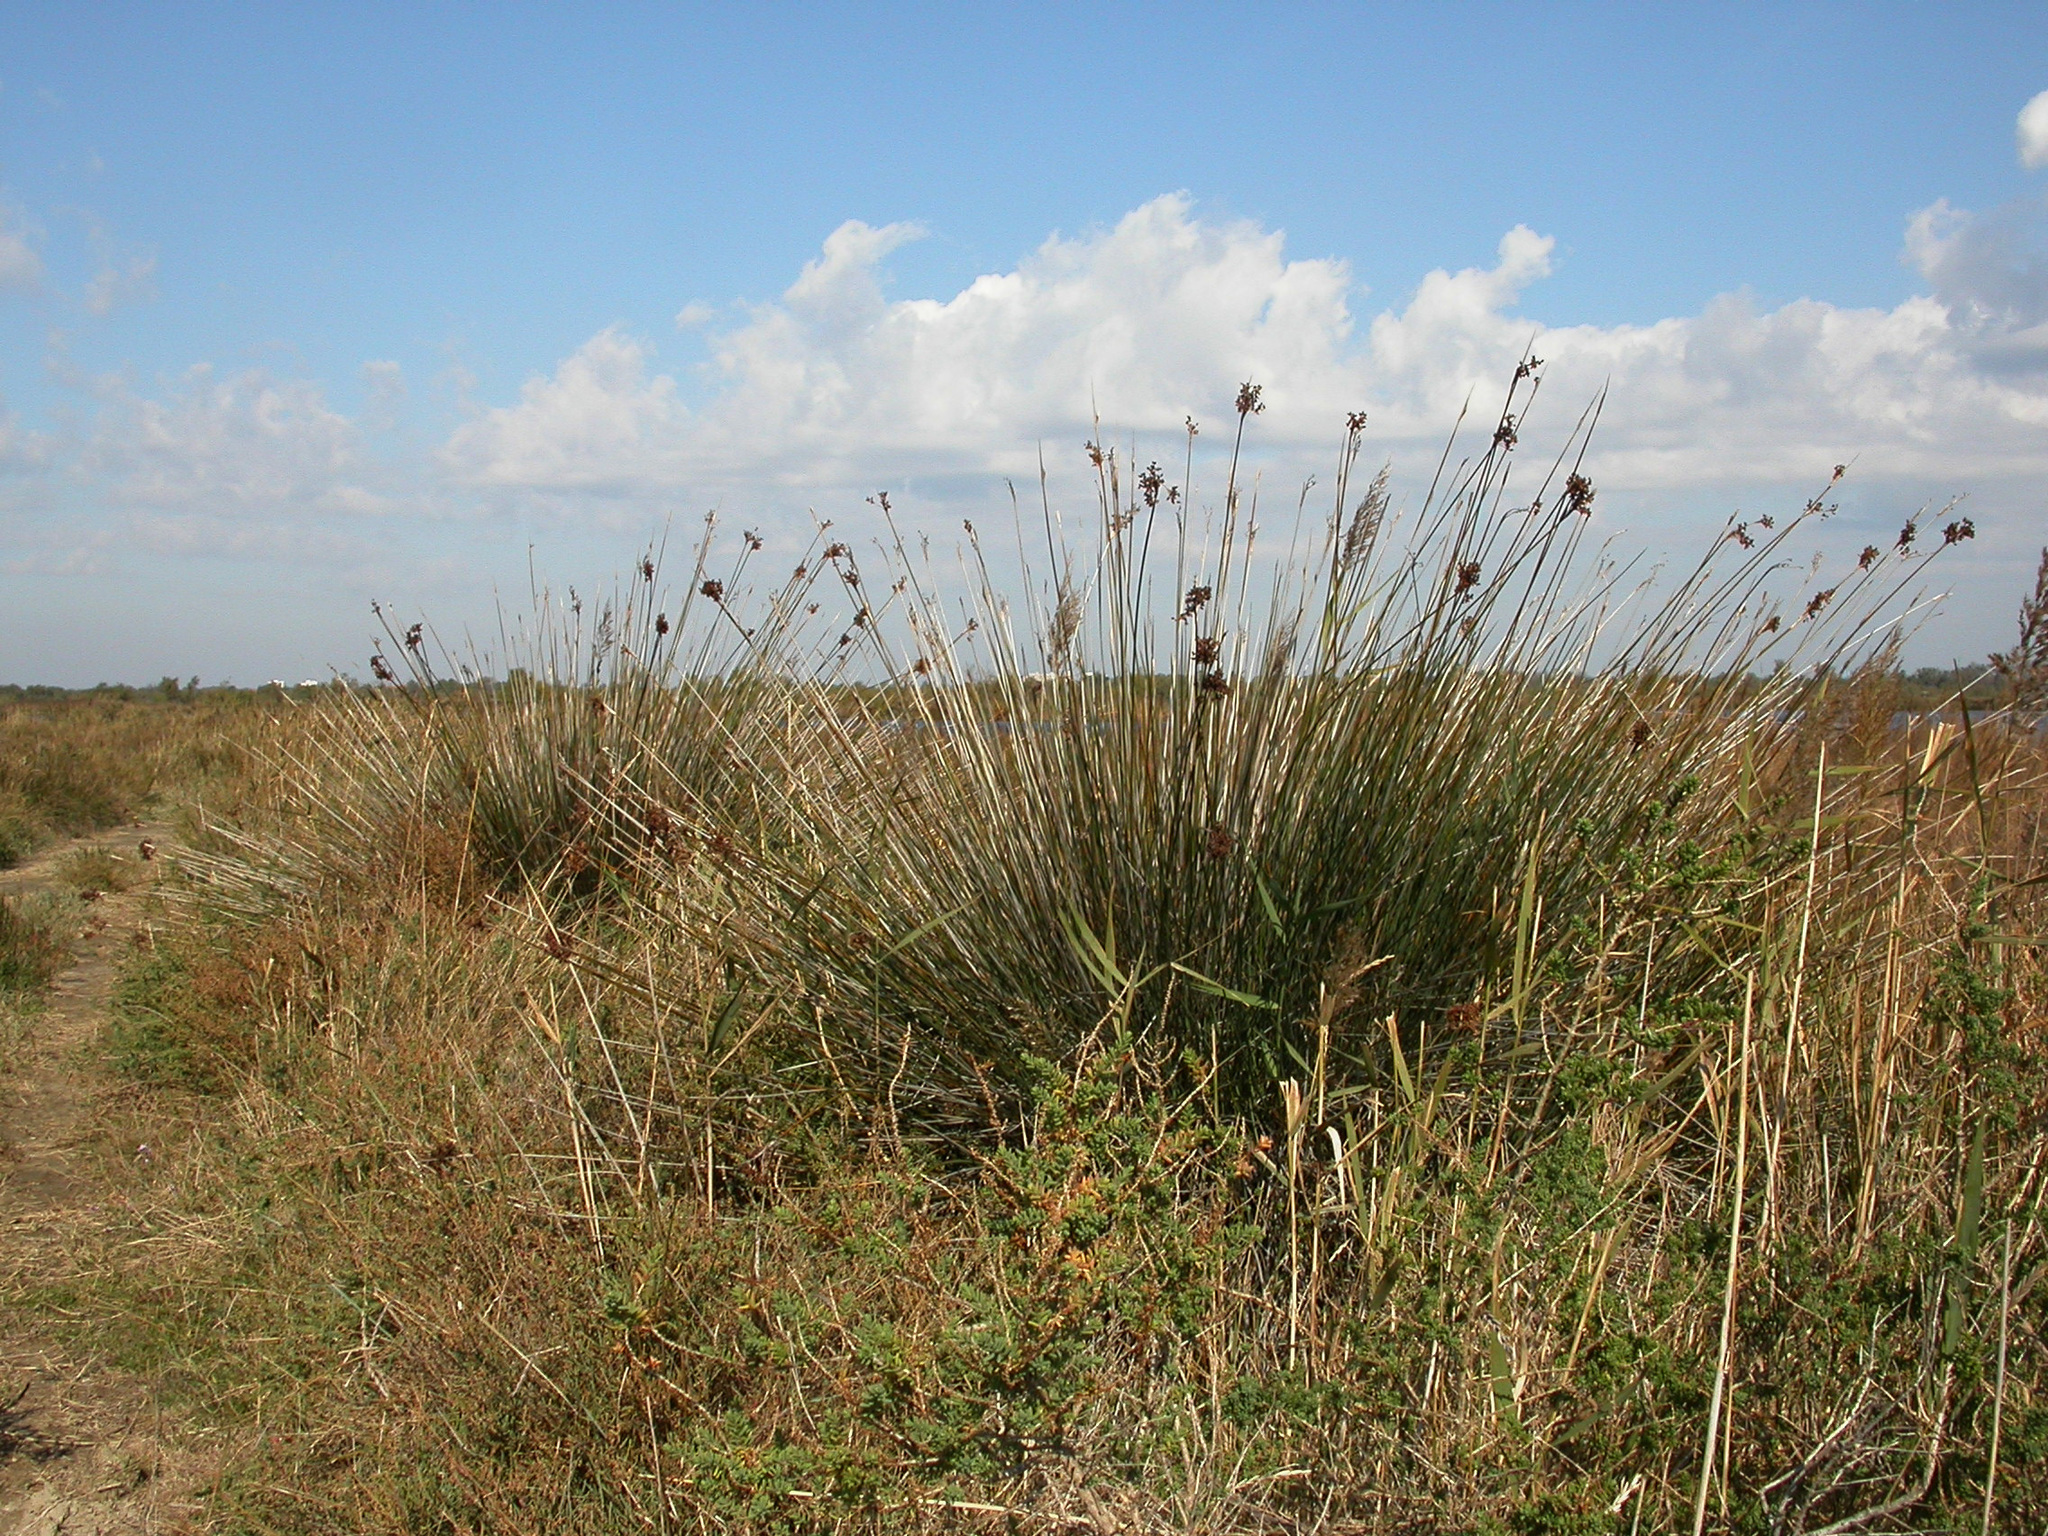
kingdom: Plantae
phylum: Tracheophyta
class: Liliopsida
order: Poales
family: Juncaceae
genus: Juncus
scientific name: Juncus acutus
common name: Sharp rush
